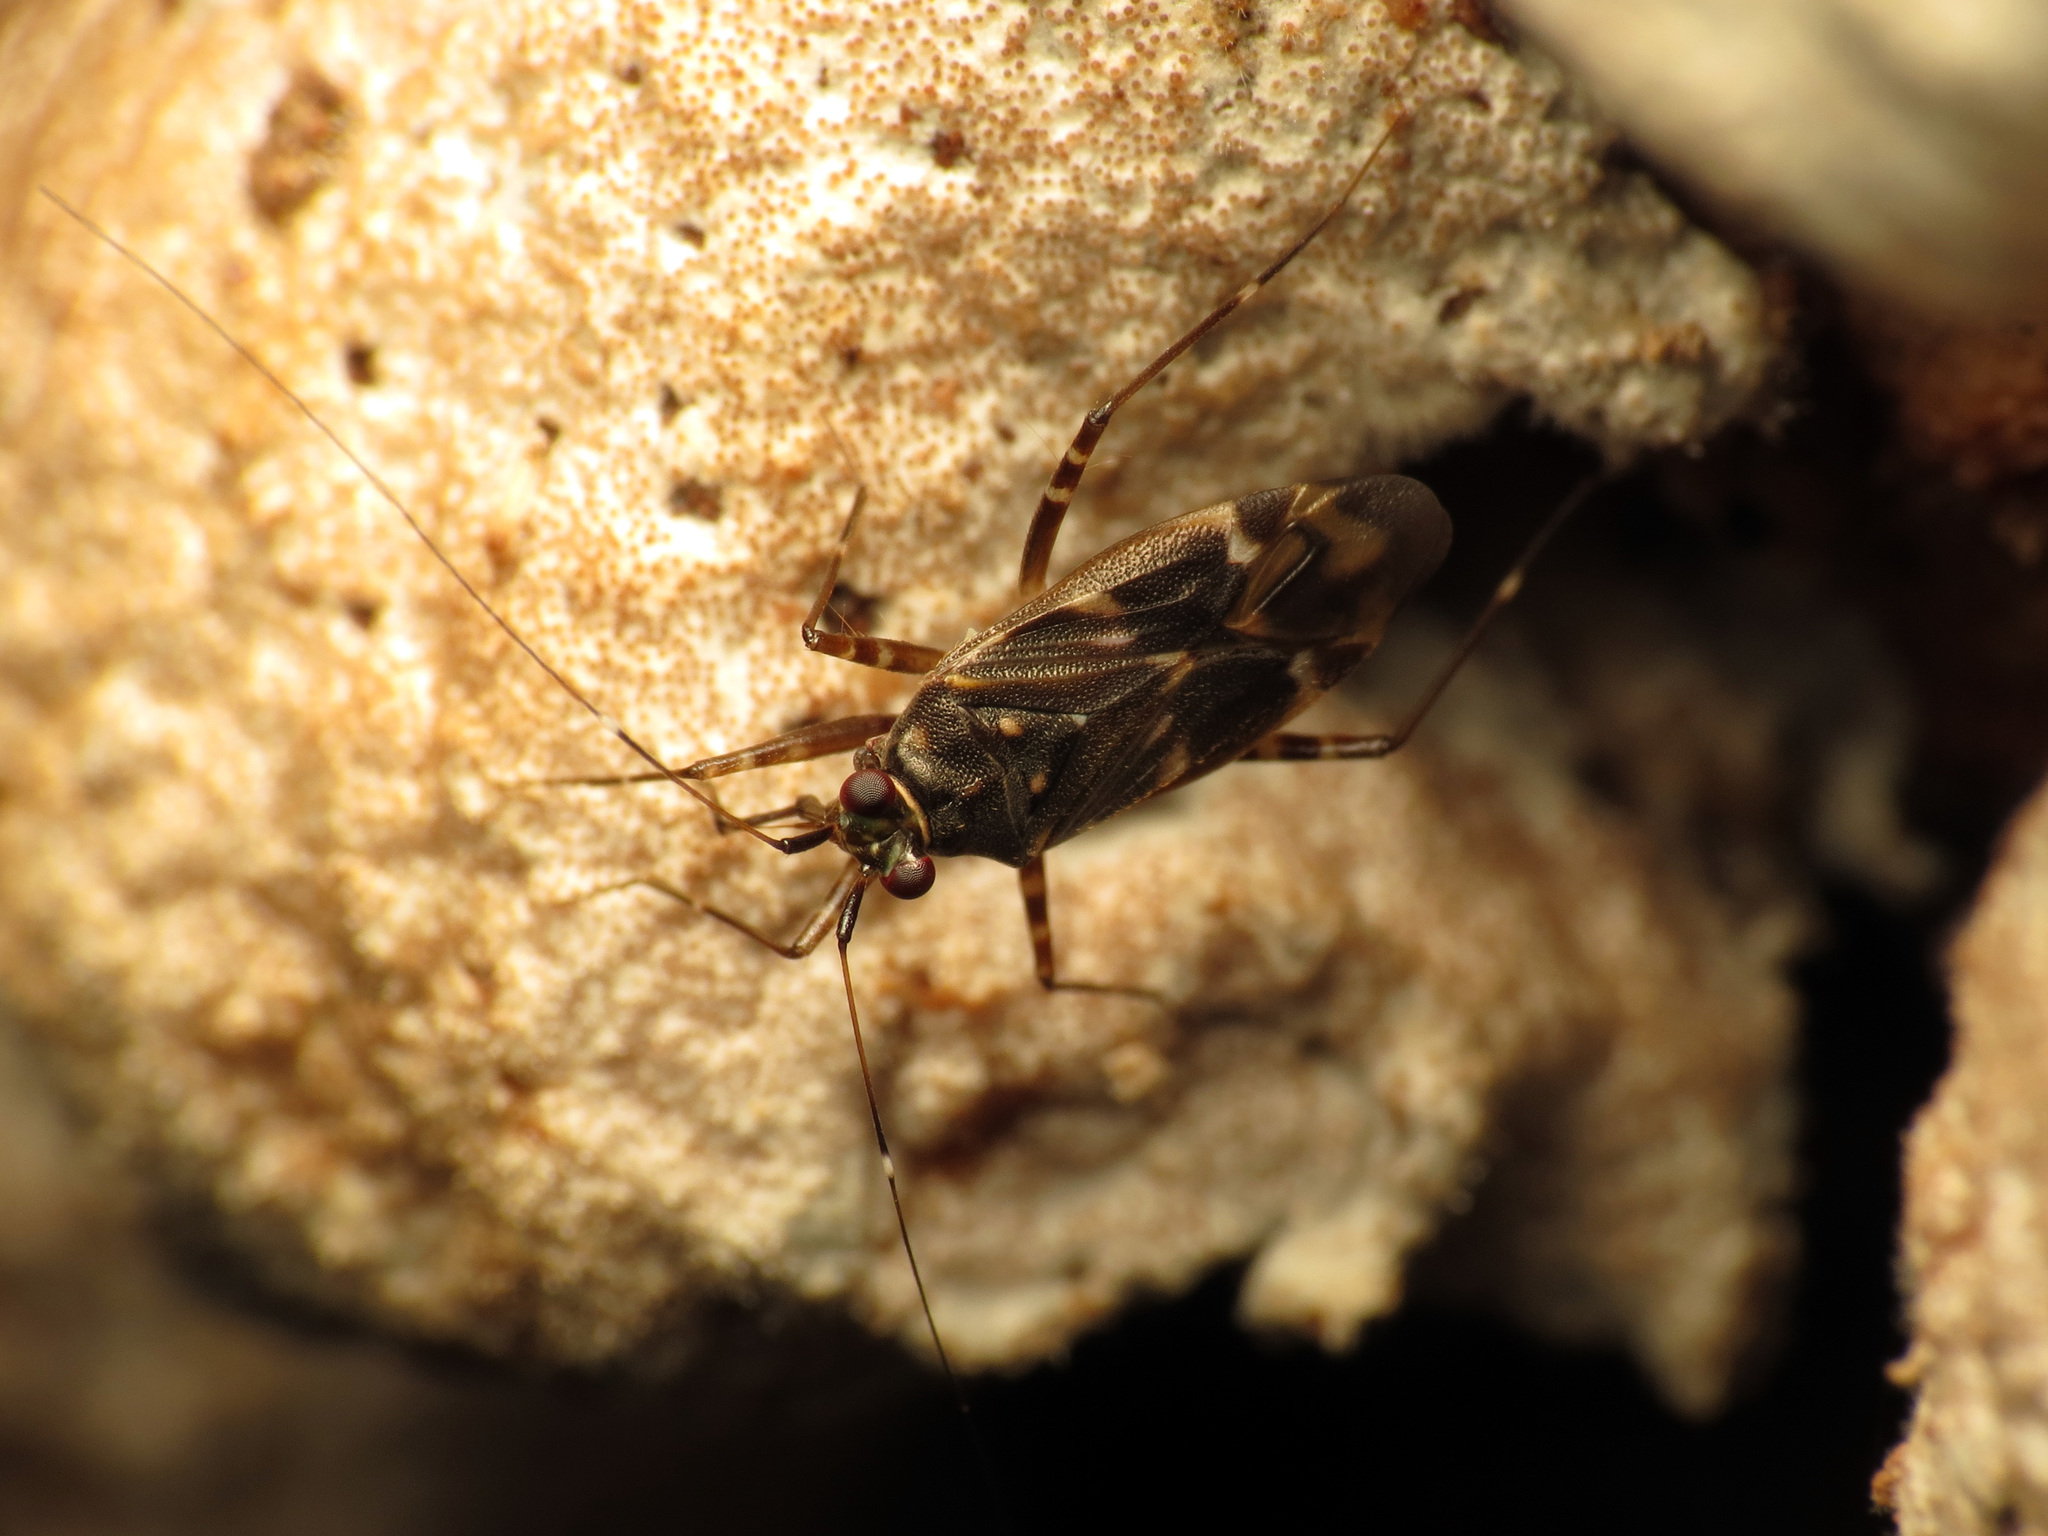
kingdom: Animalia
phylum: Arthropoda
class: Insecta
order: Hemiptera
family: Miridae
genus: Cylapus
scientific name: Cylapus tenuicornis
